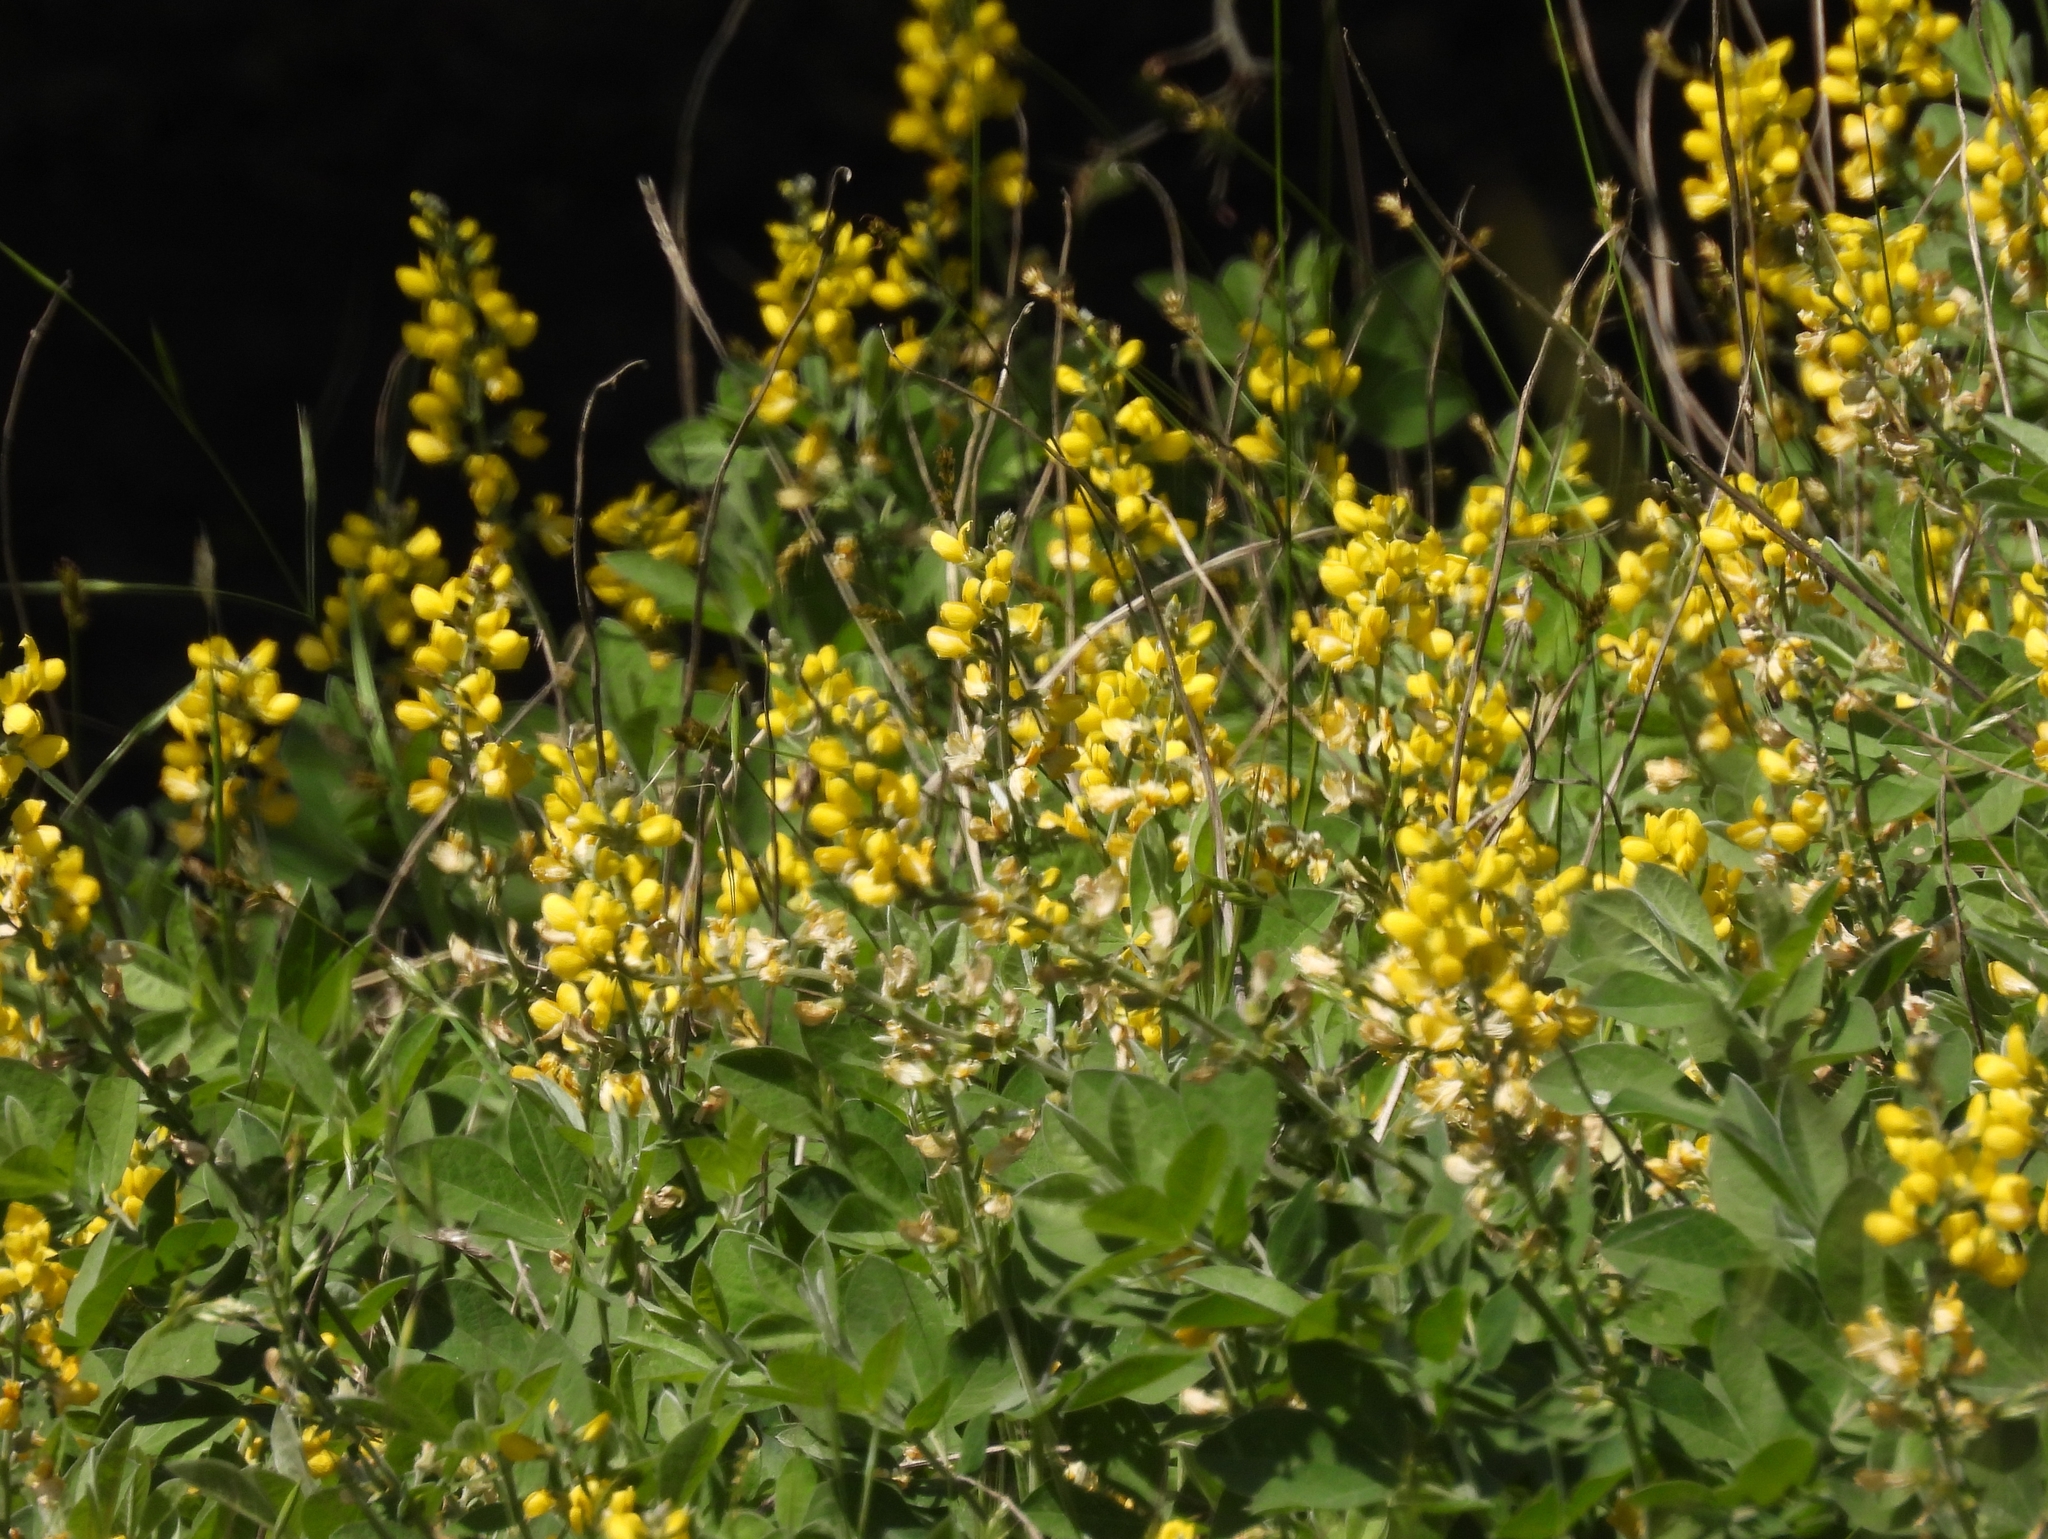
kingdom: Plantae
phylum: Tracheophyta
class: Magnoliopsida
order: Fabales
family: Fabaceae
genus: Thermopsis
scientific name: Thermopsis californica
